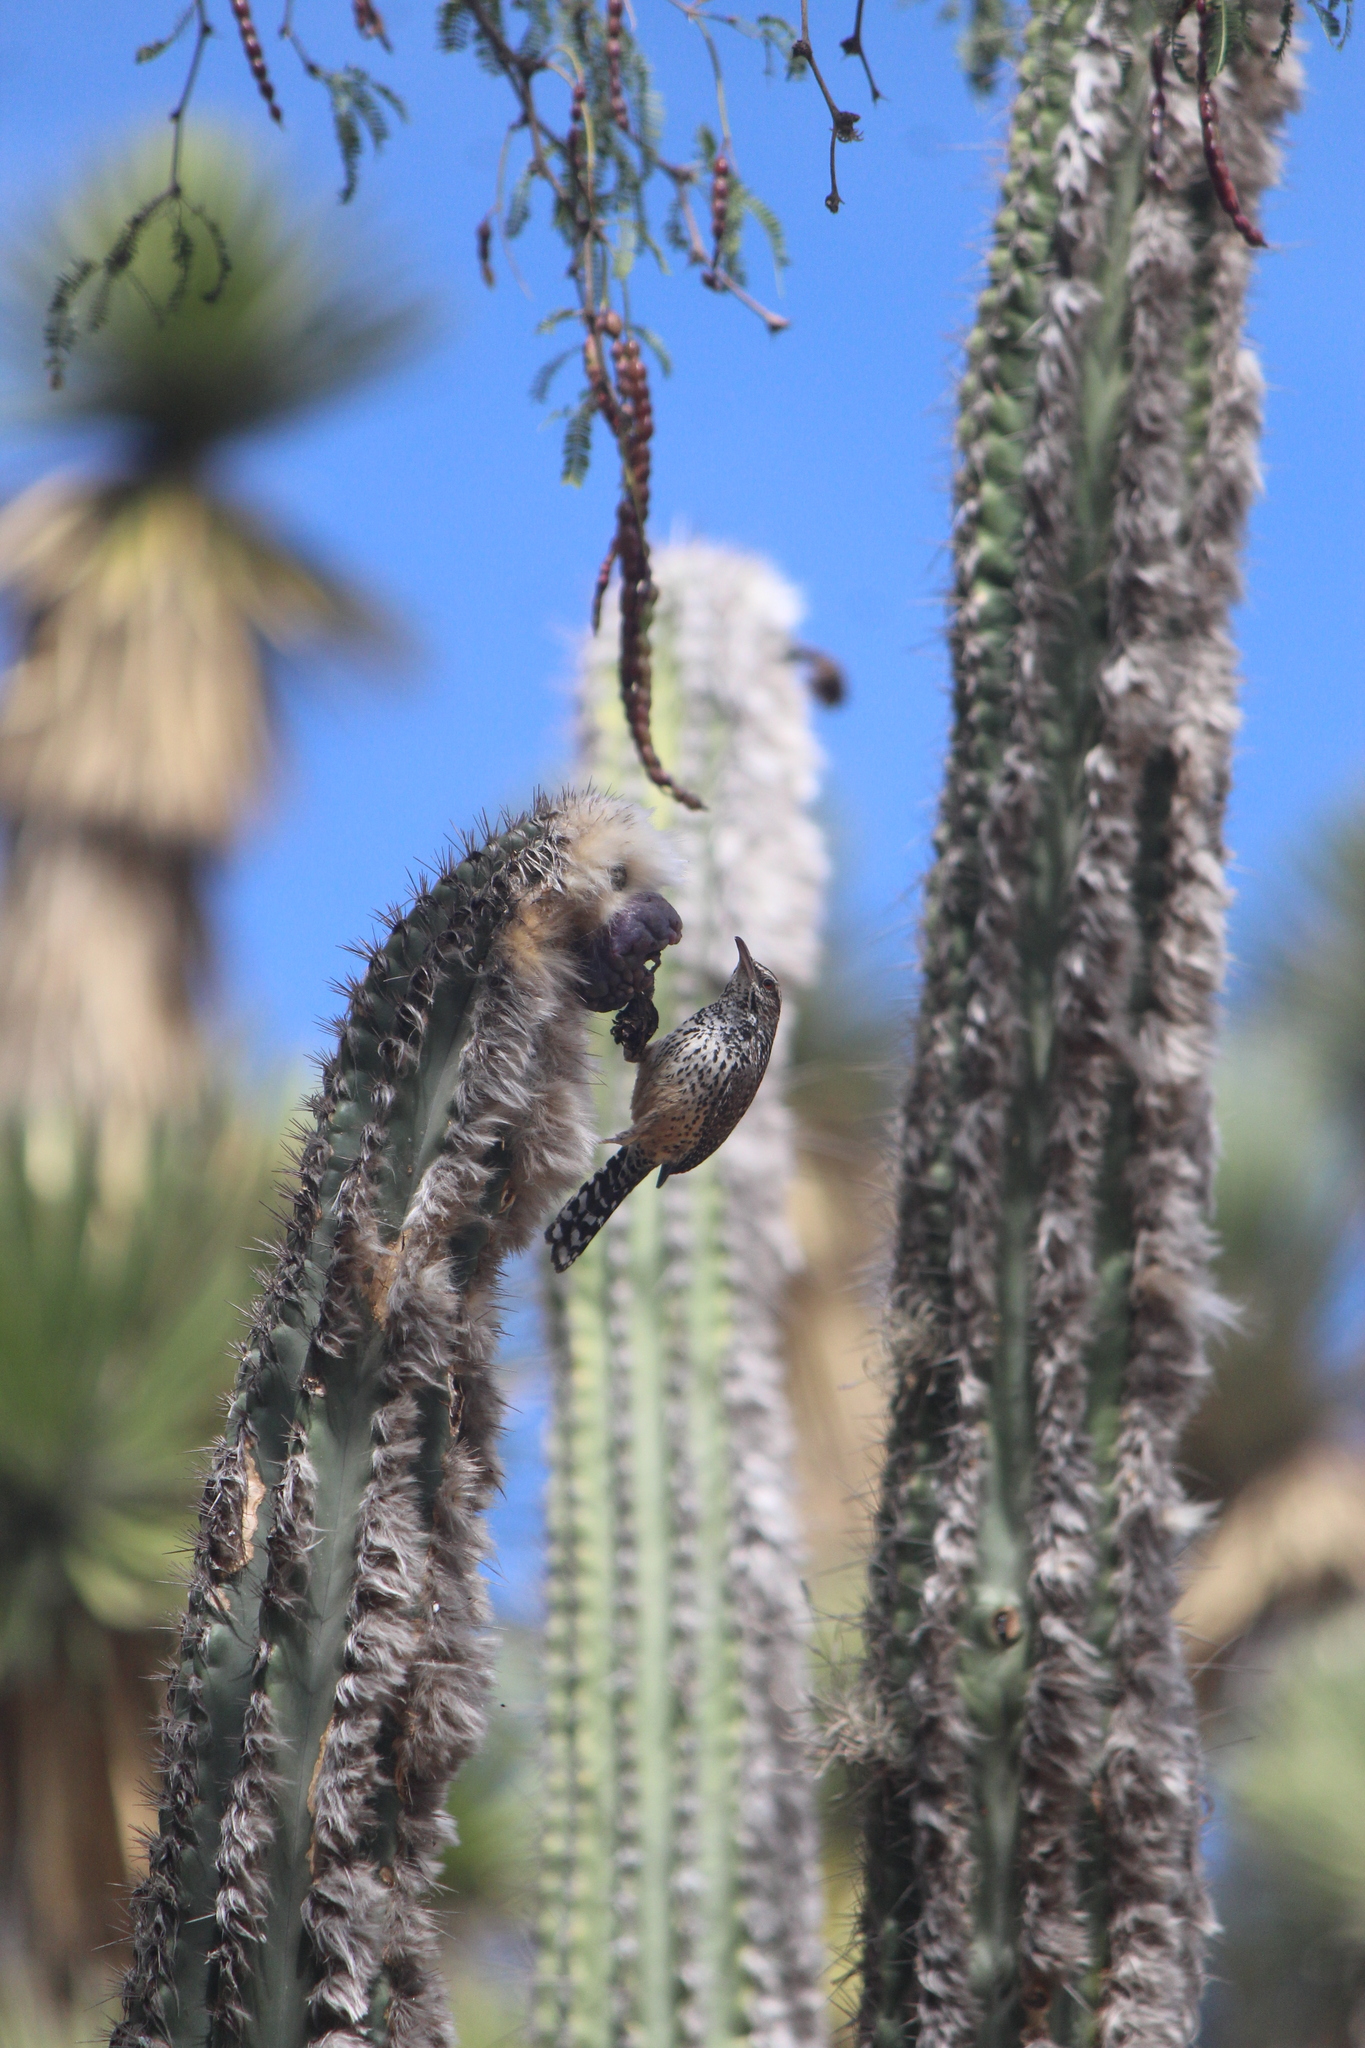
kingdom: Animalia
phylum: Chordata
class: Aves
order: Passeriformes
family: Troglodytidae
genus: Campylorhynchus
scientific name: Campylorhynchus brunneicapillus
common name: Cactus wren
